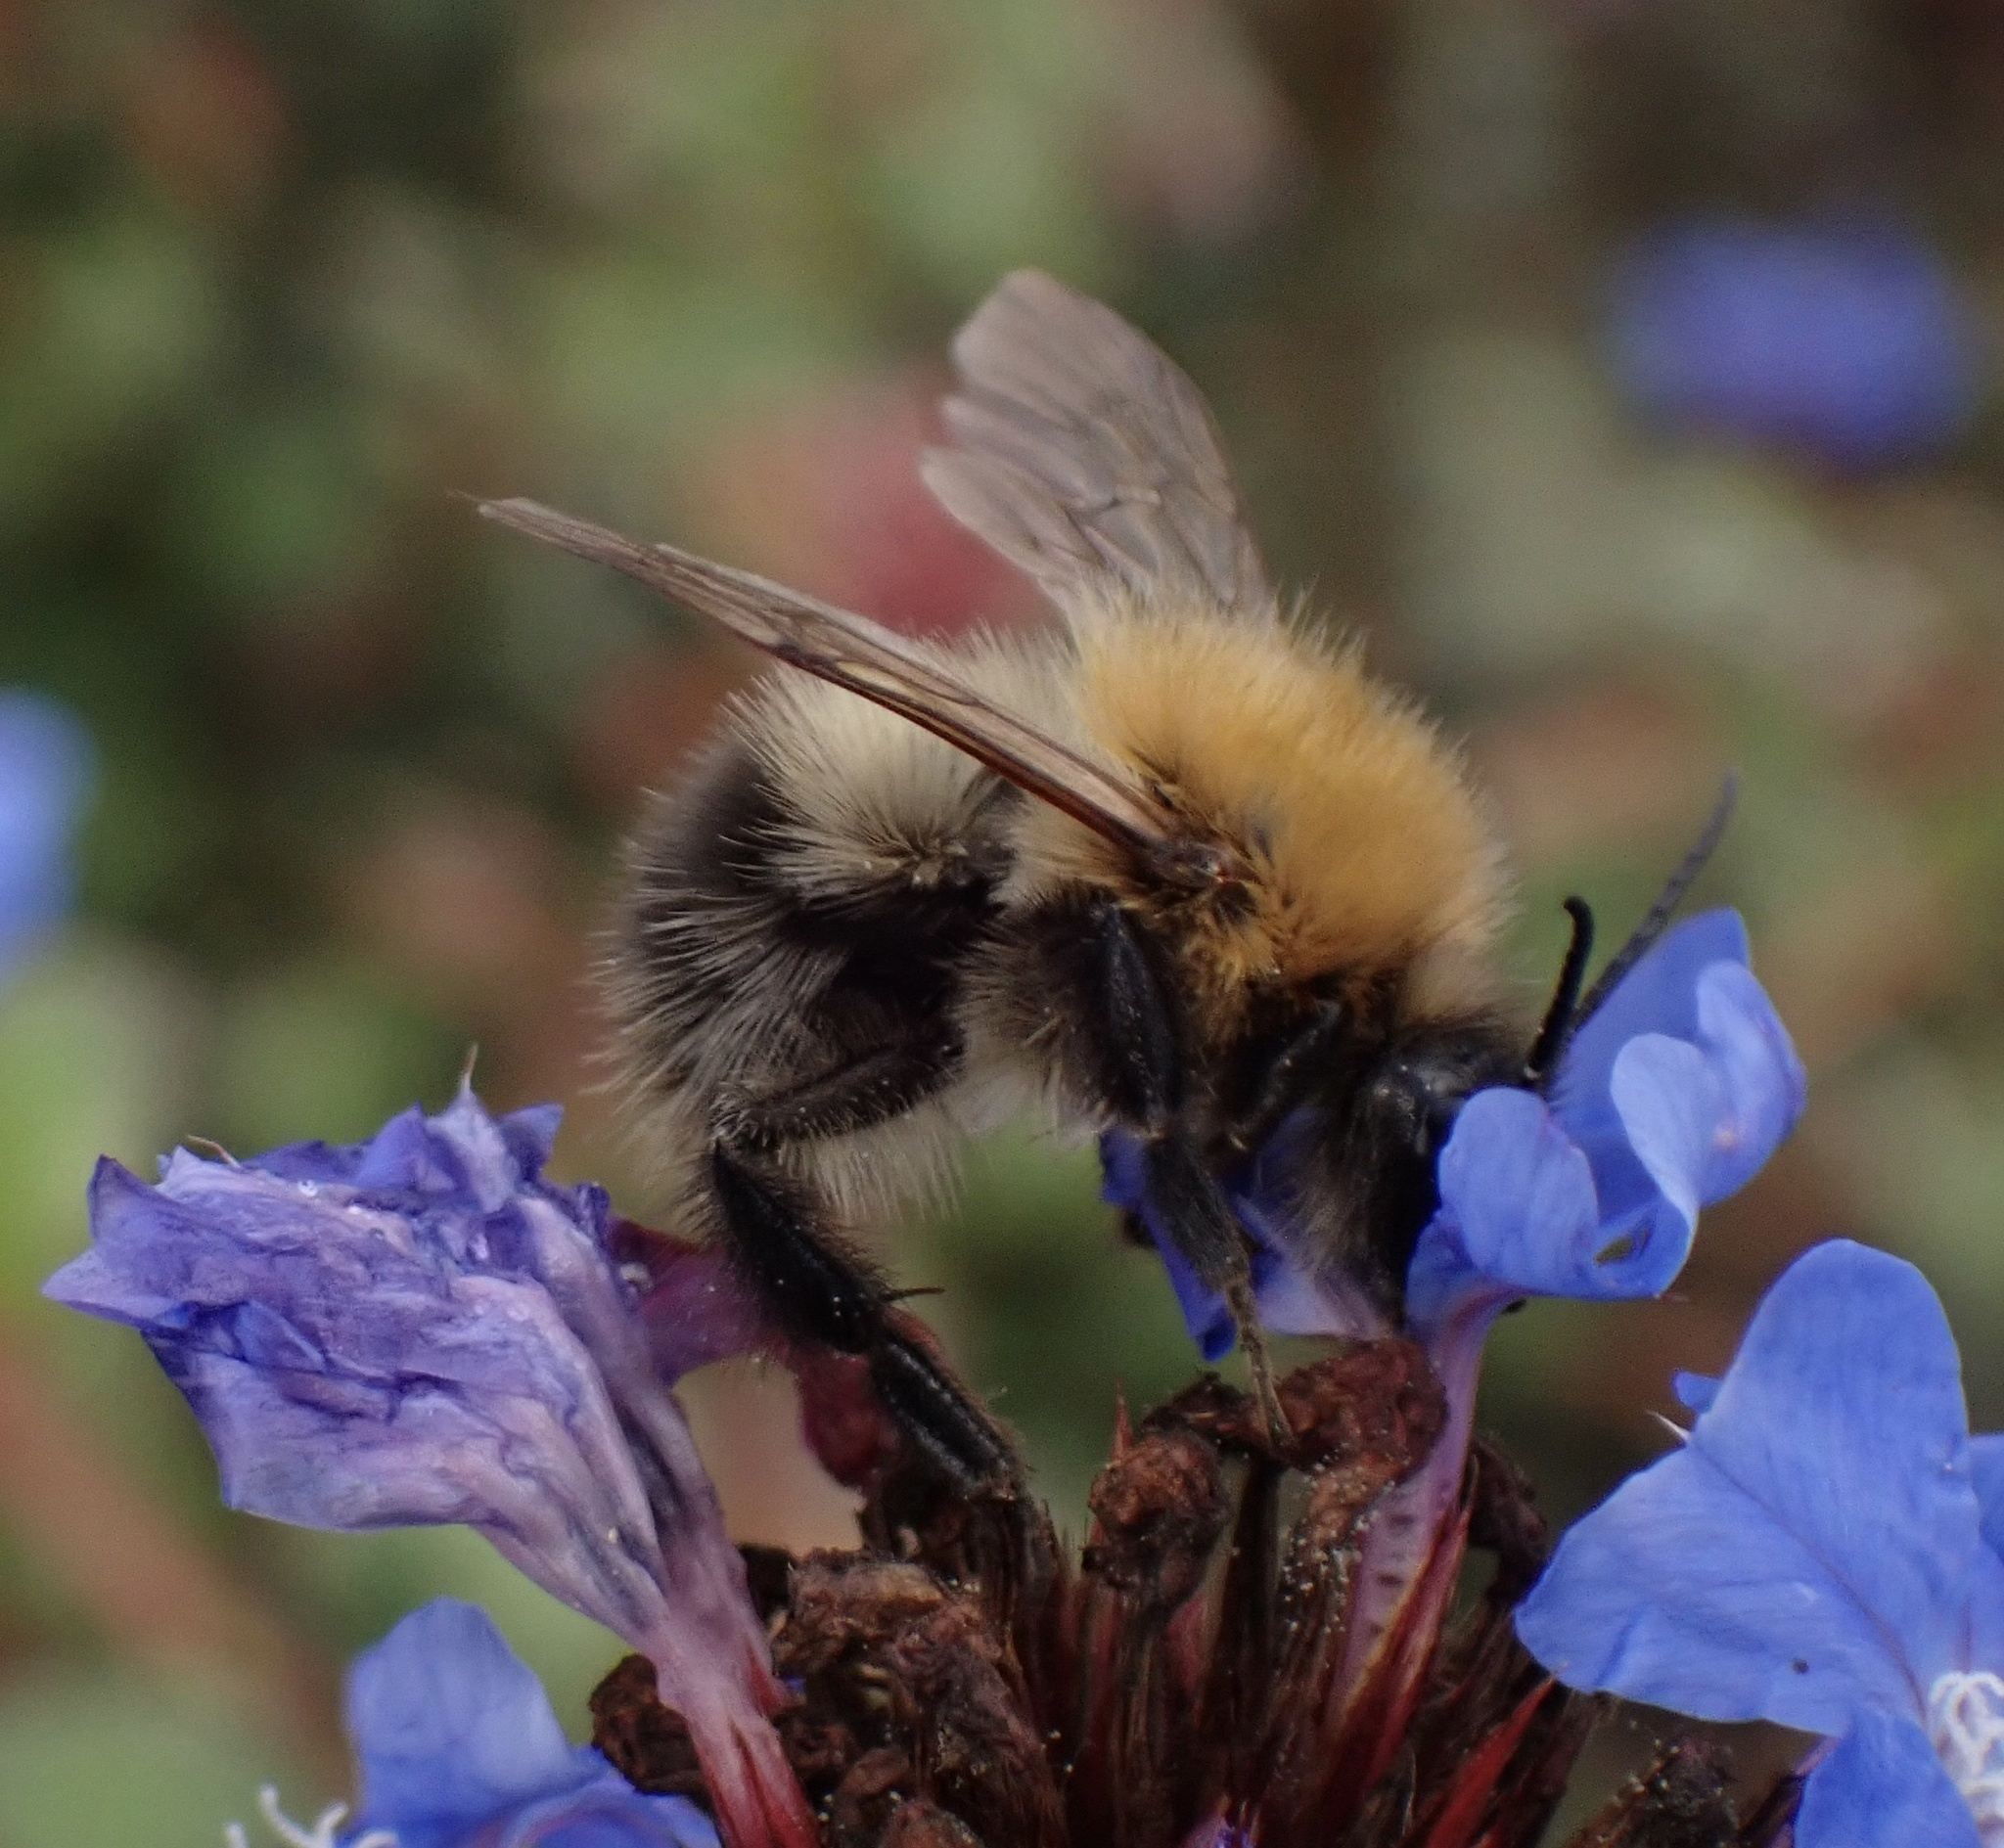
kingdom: Animalia
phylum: Arthropoda
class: Insecta
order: Hymenoptera
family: Apidae
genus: Bombus
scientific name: Bombus pascuorum
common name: Common carder bee
